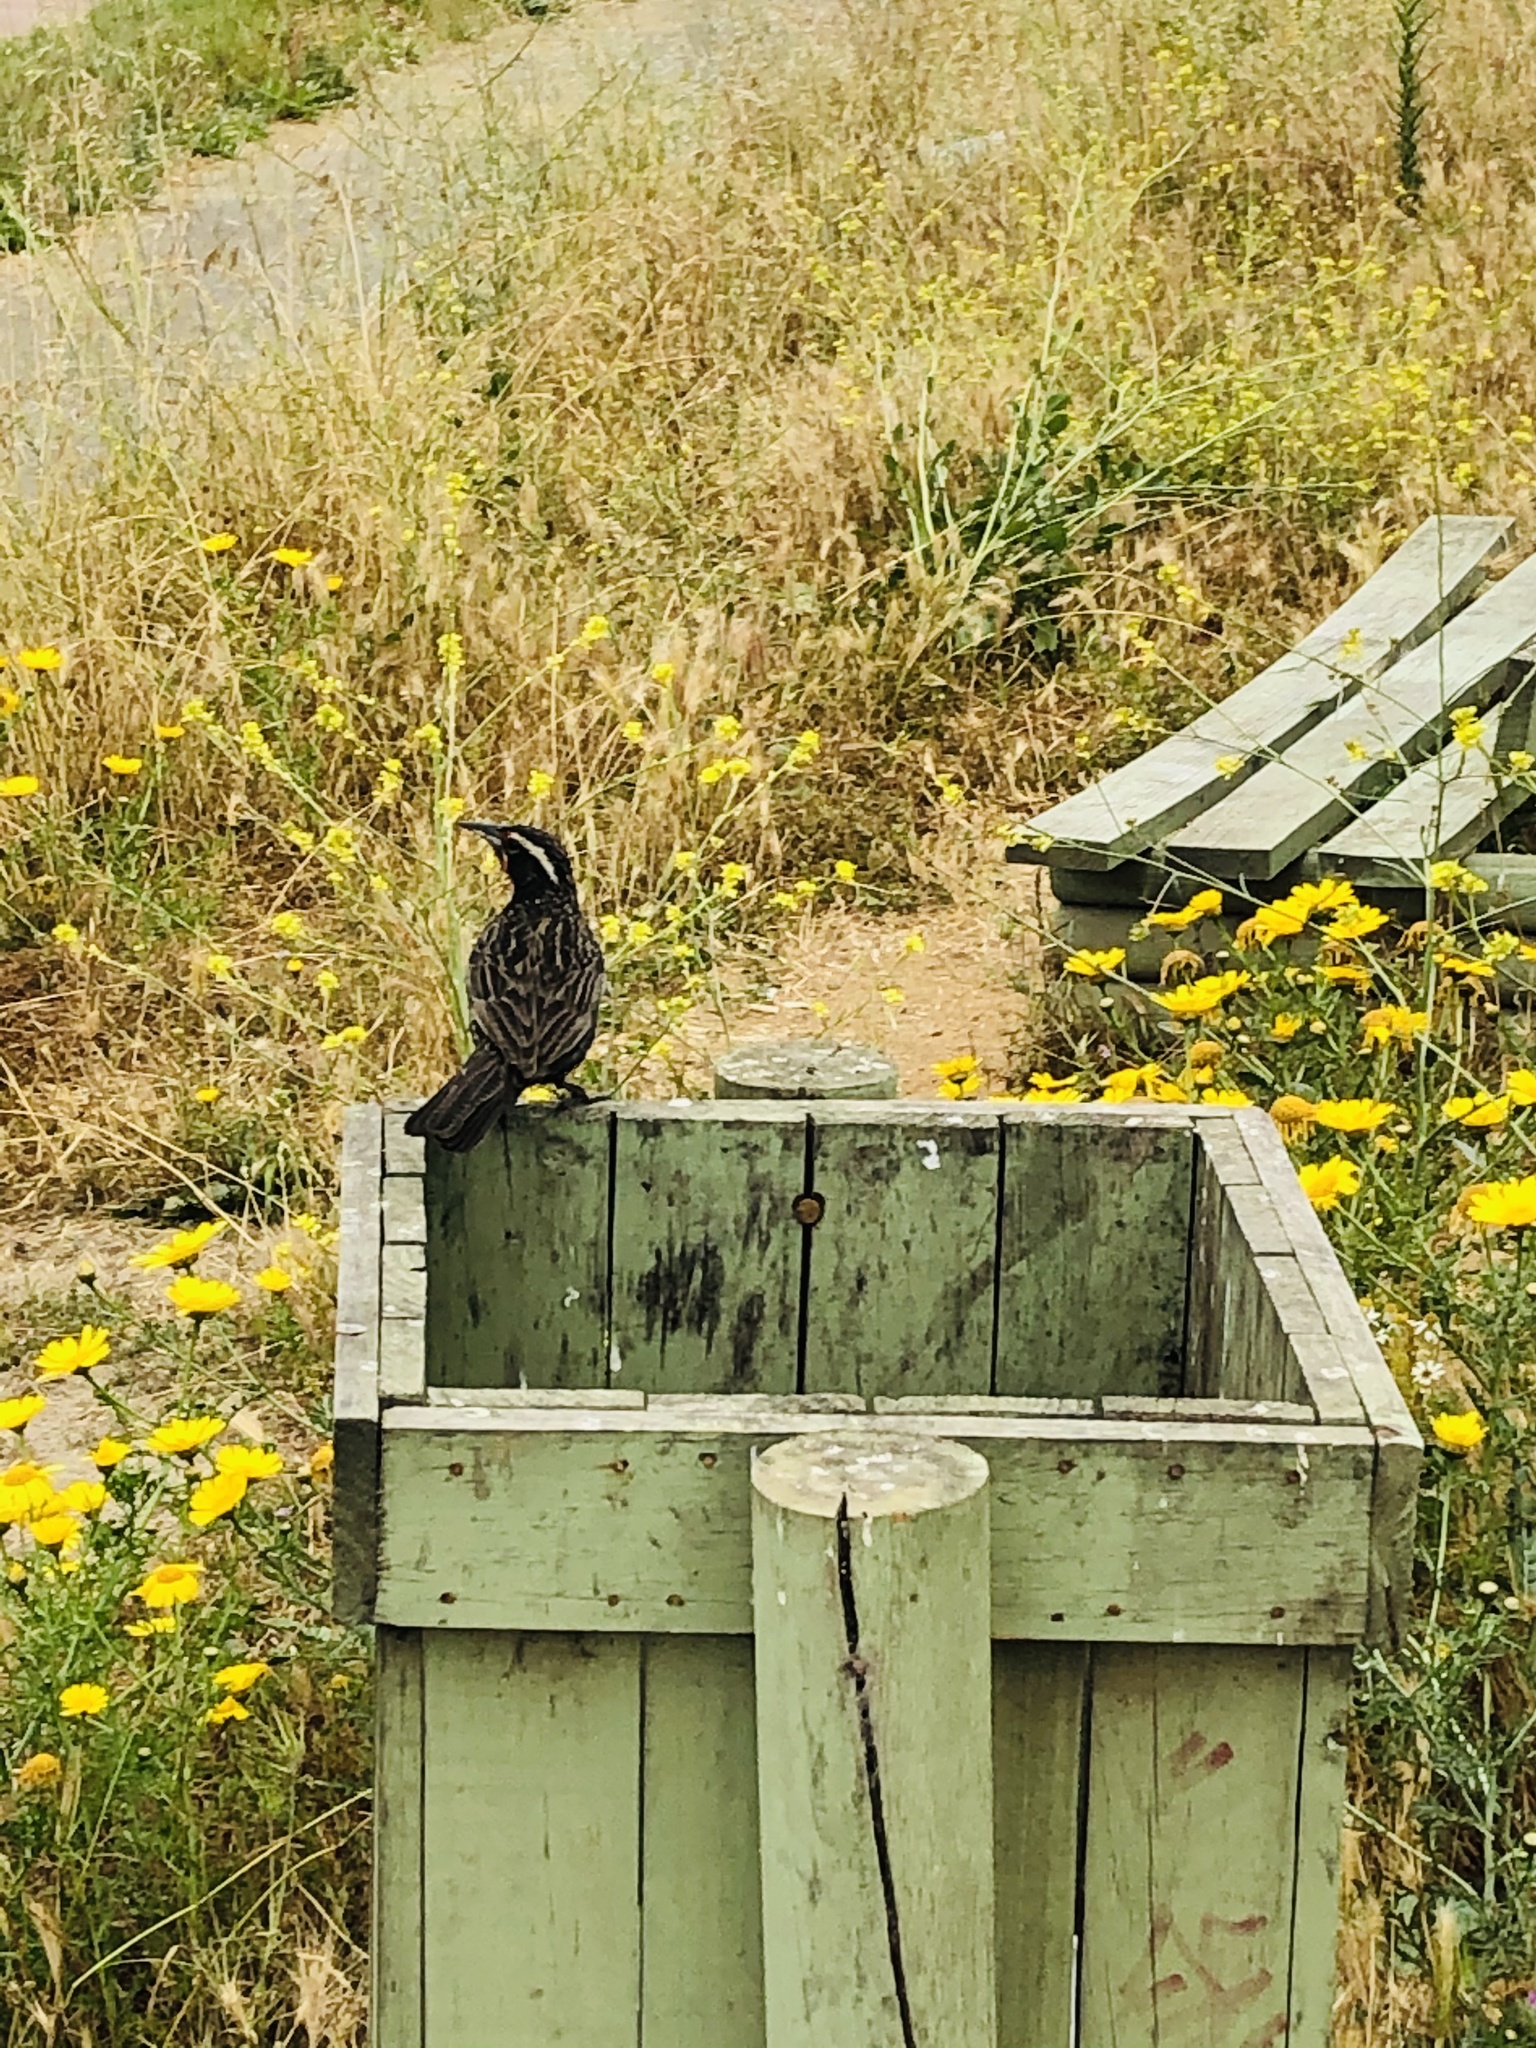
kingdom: Animalia
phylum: Chordata
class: Aves
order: Passeriformes
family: Icteridae
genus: Sturnella
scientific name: Sturnella loyca
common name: Long-tailed meadowlark
